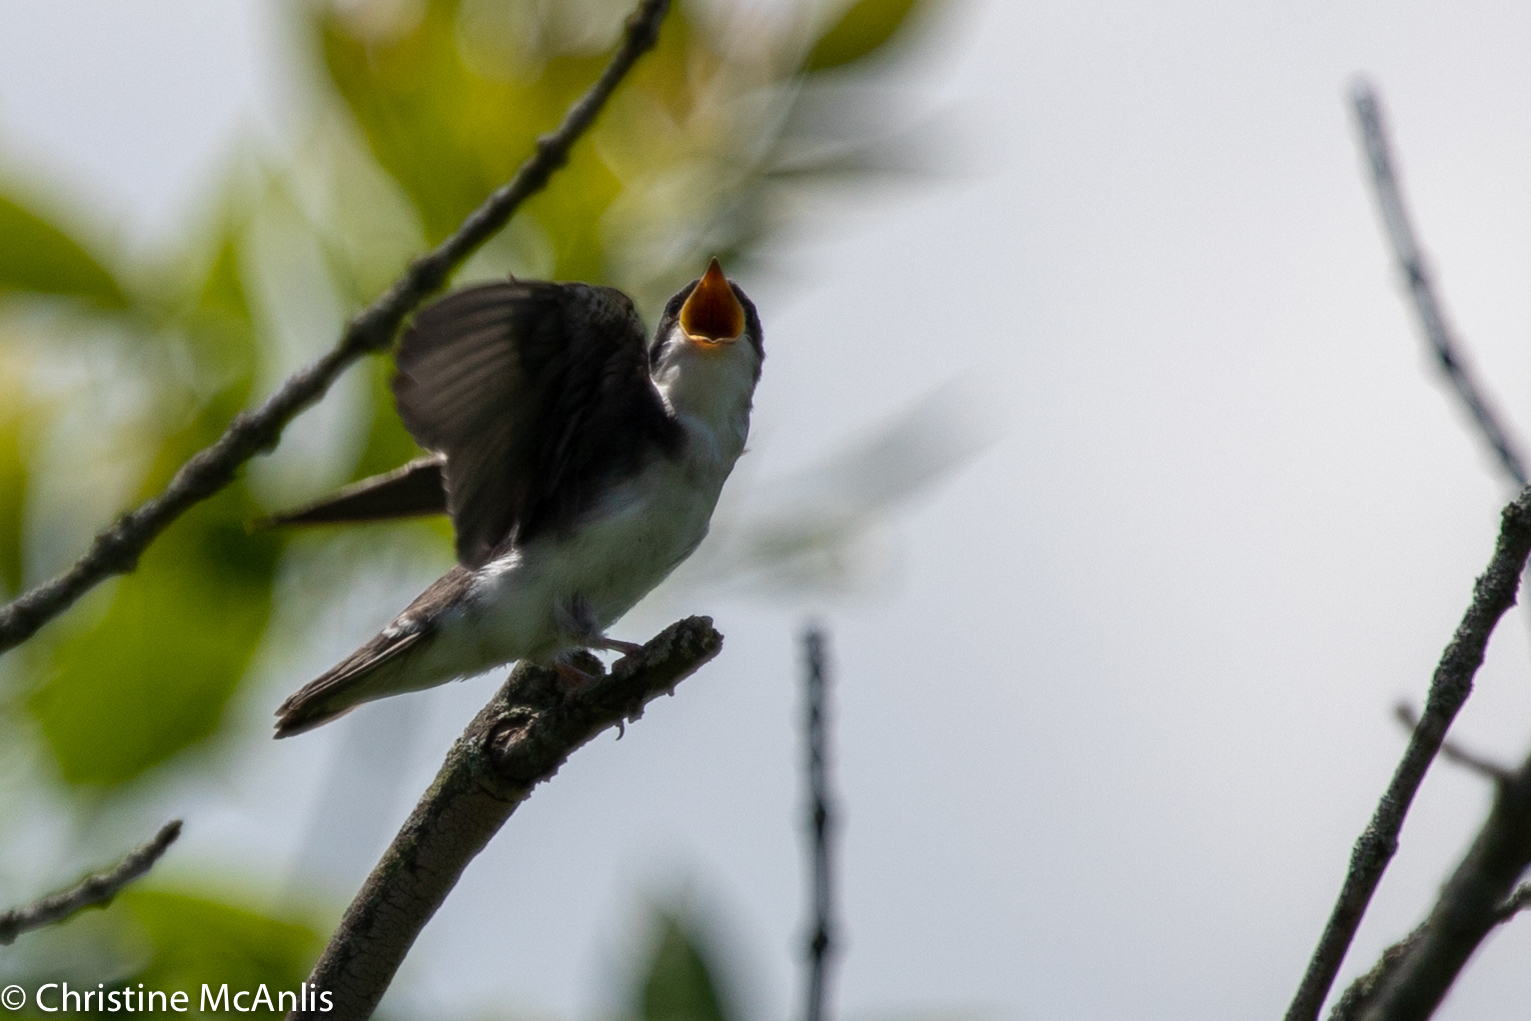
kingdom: Animalia
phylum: Chordata
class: Aves
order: Passeriformes
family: Hirundinidae
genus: Tachycineta
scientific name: Tachycineta bicolor
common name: Tree swallow
